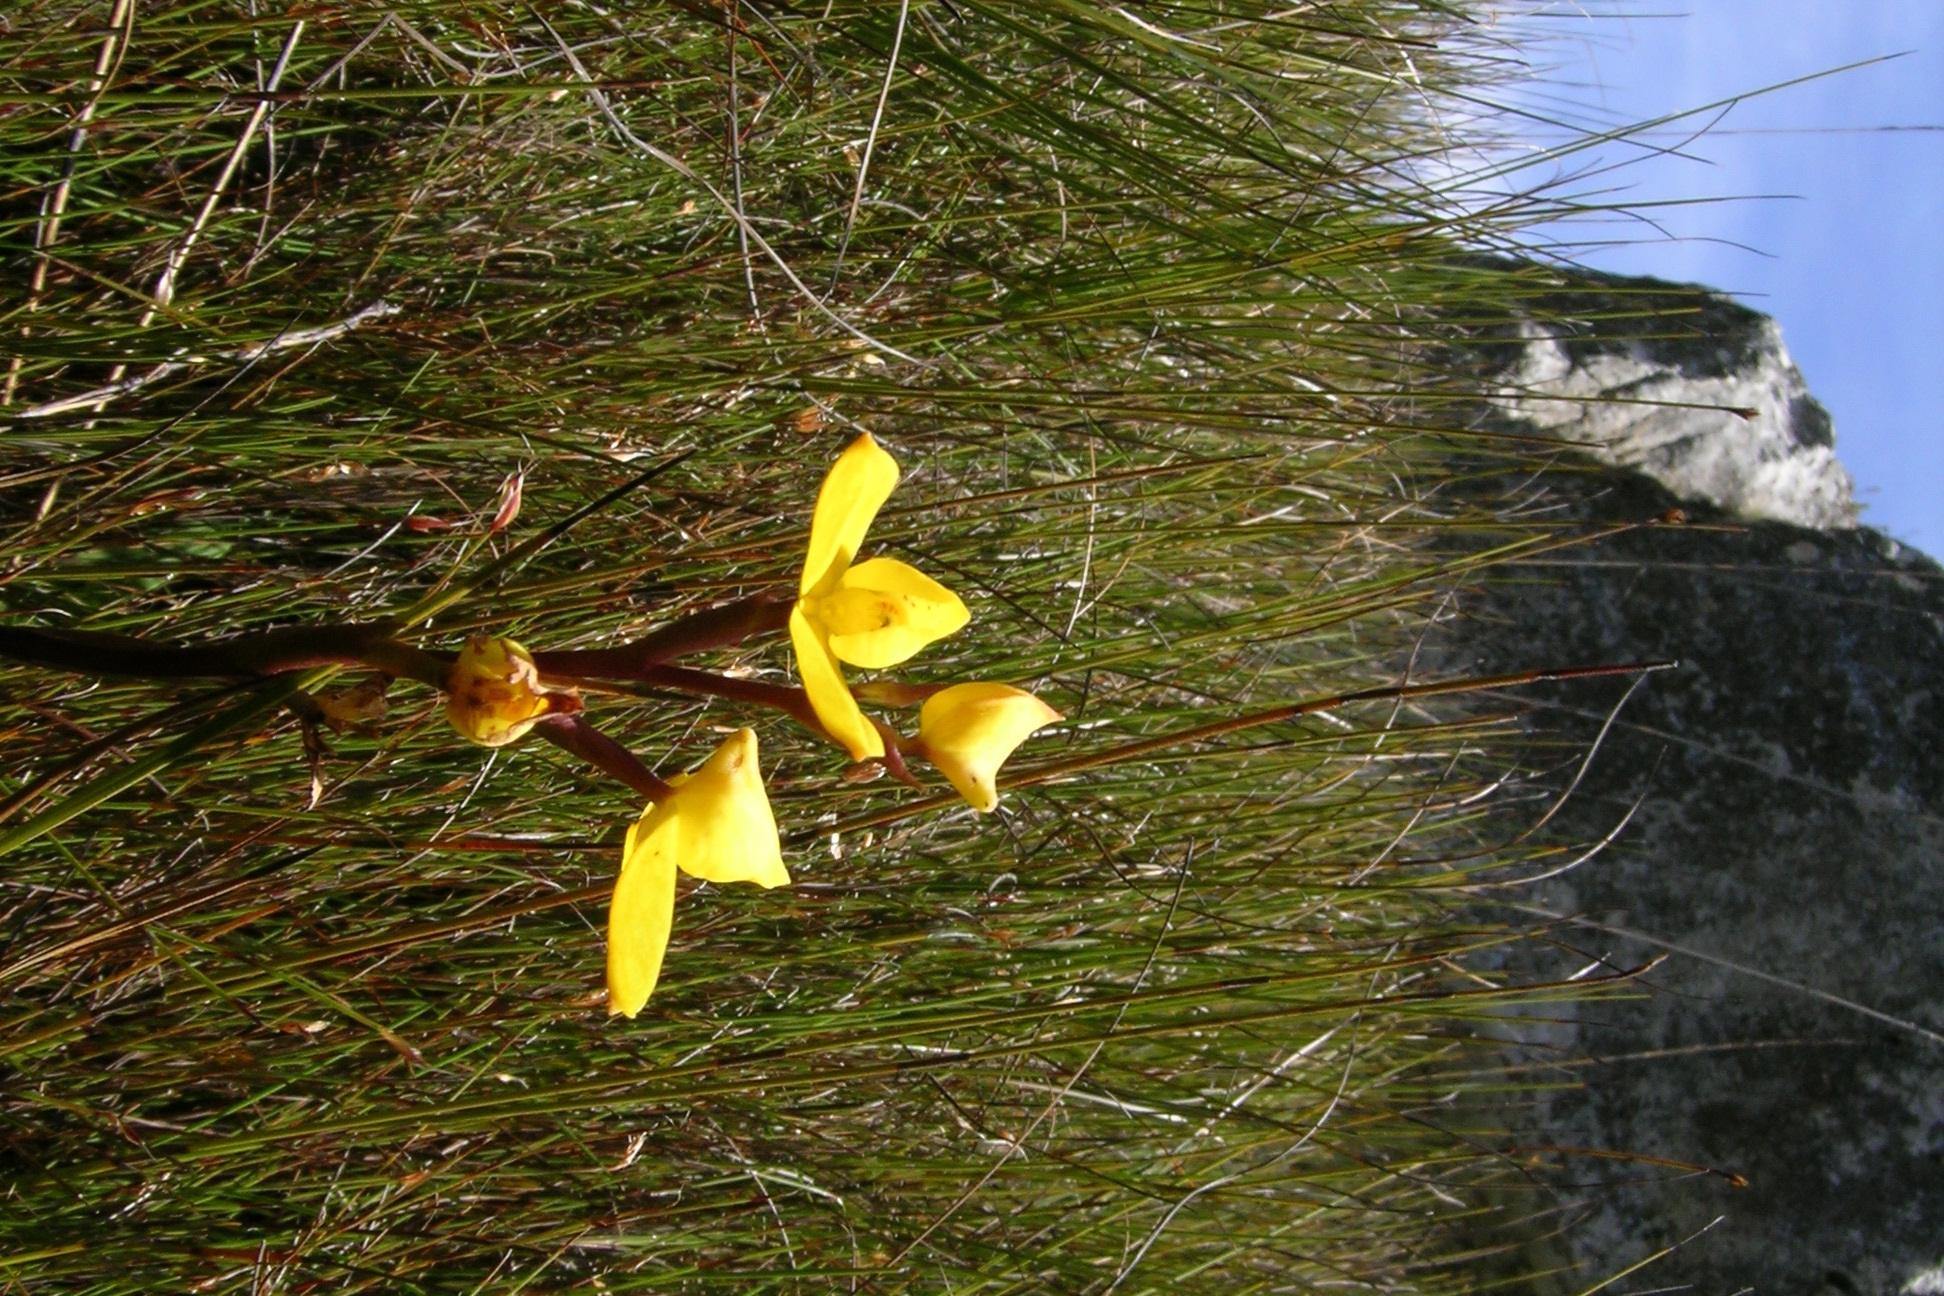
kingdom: Plantae
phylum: Tracheophyta
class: Liliopsida
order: Asparagales
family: Orchidaceae
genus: Disa
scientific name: Disa aurata
